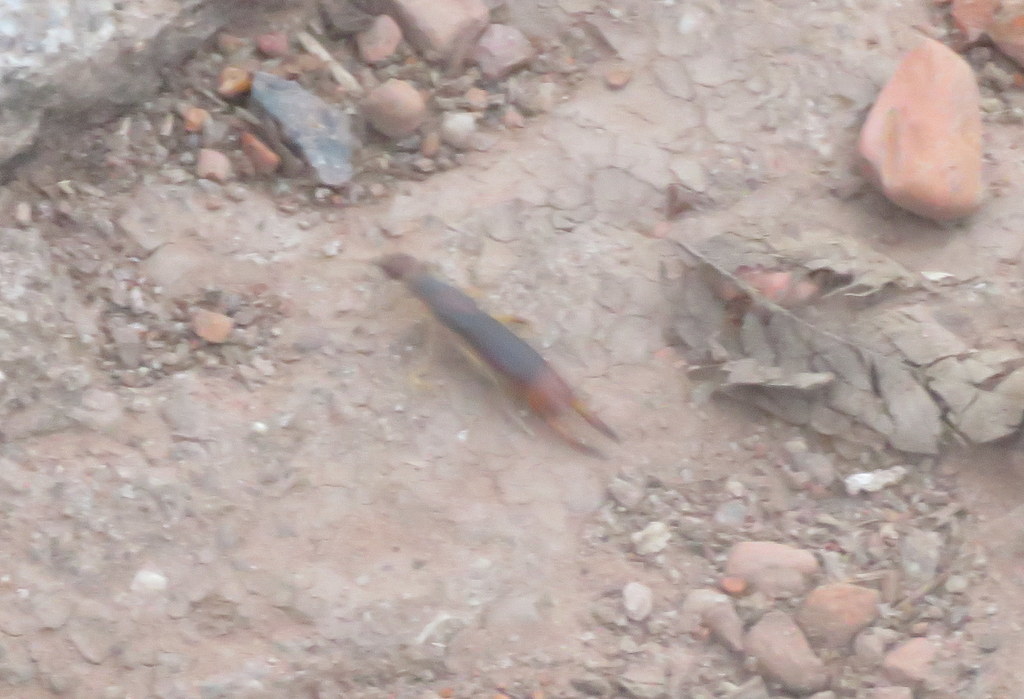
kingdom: Animalia
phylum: Arthropoda
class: Insecta
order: Dermaptera
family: Labiduridae
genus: Labidura
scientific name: Labidura riparia
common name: Striped earwig
